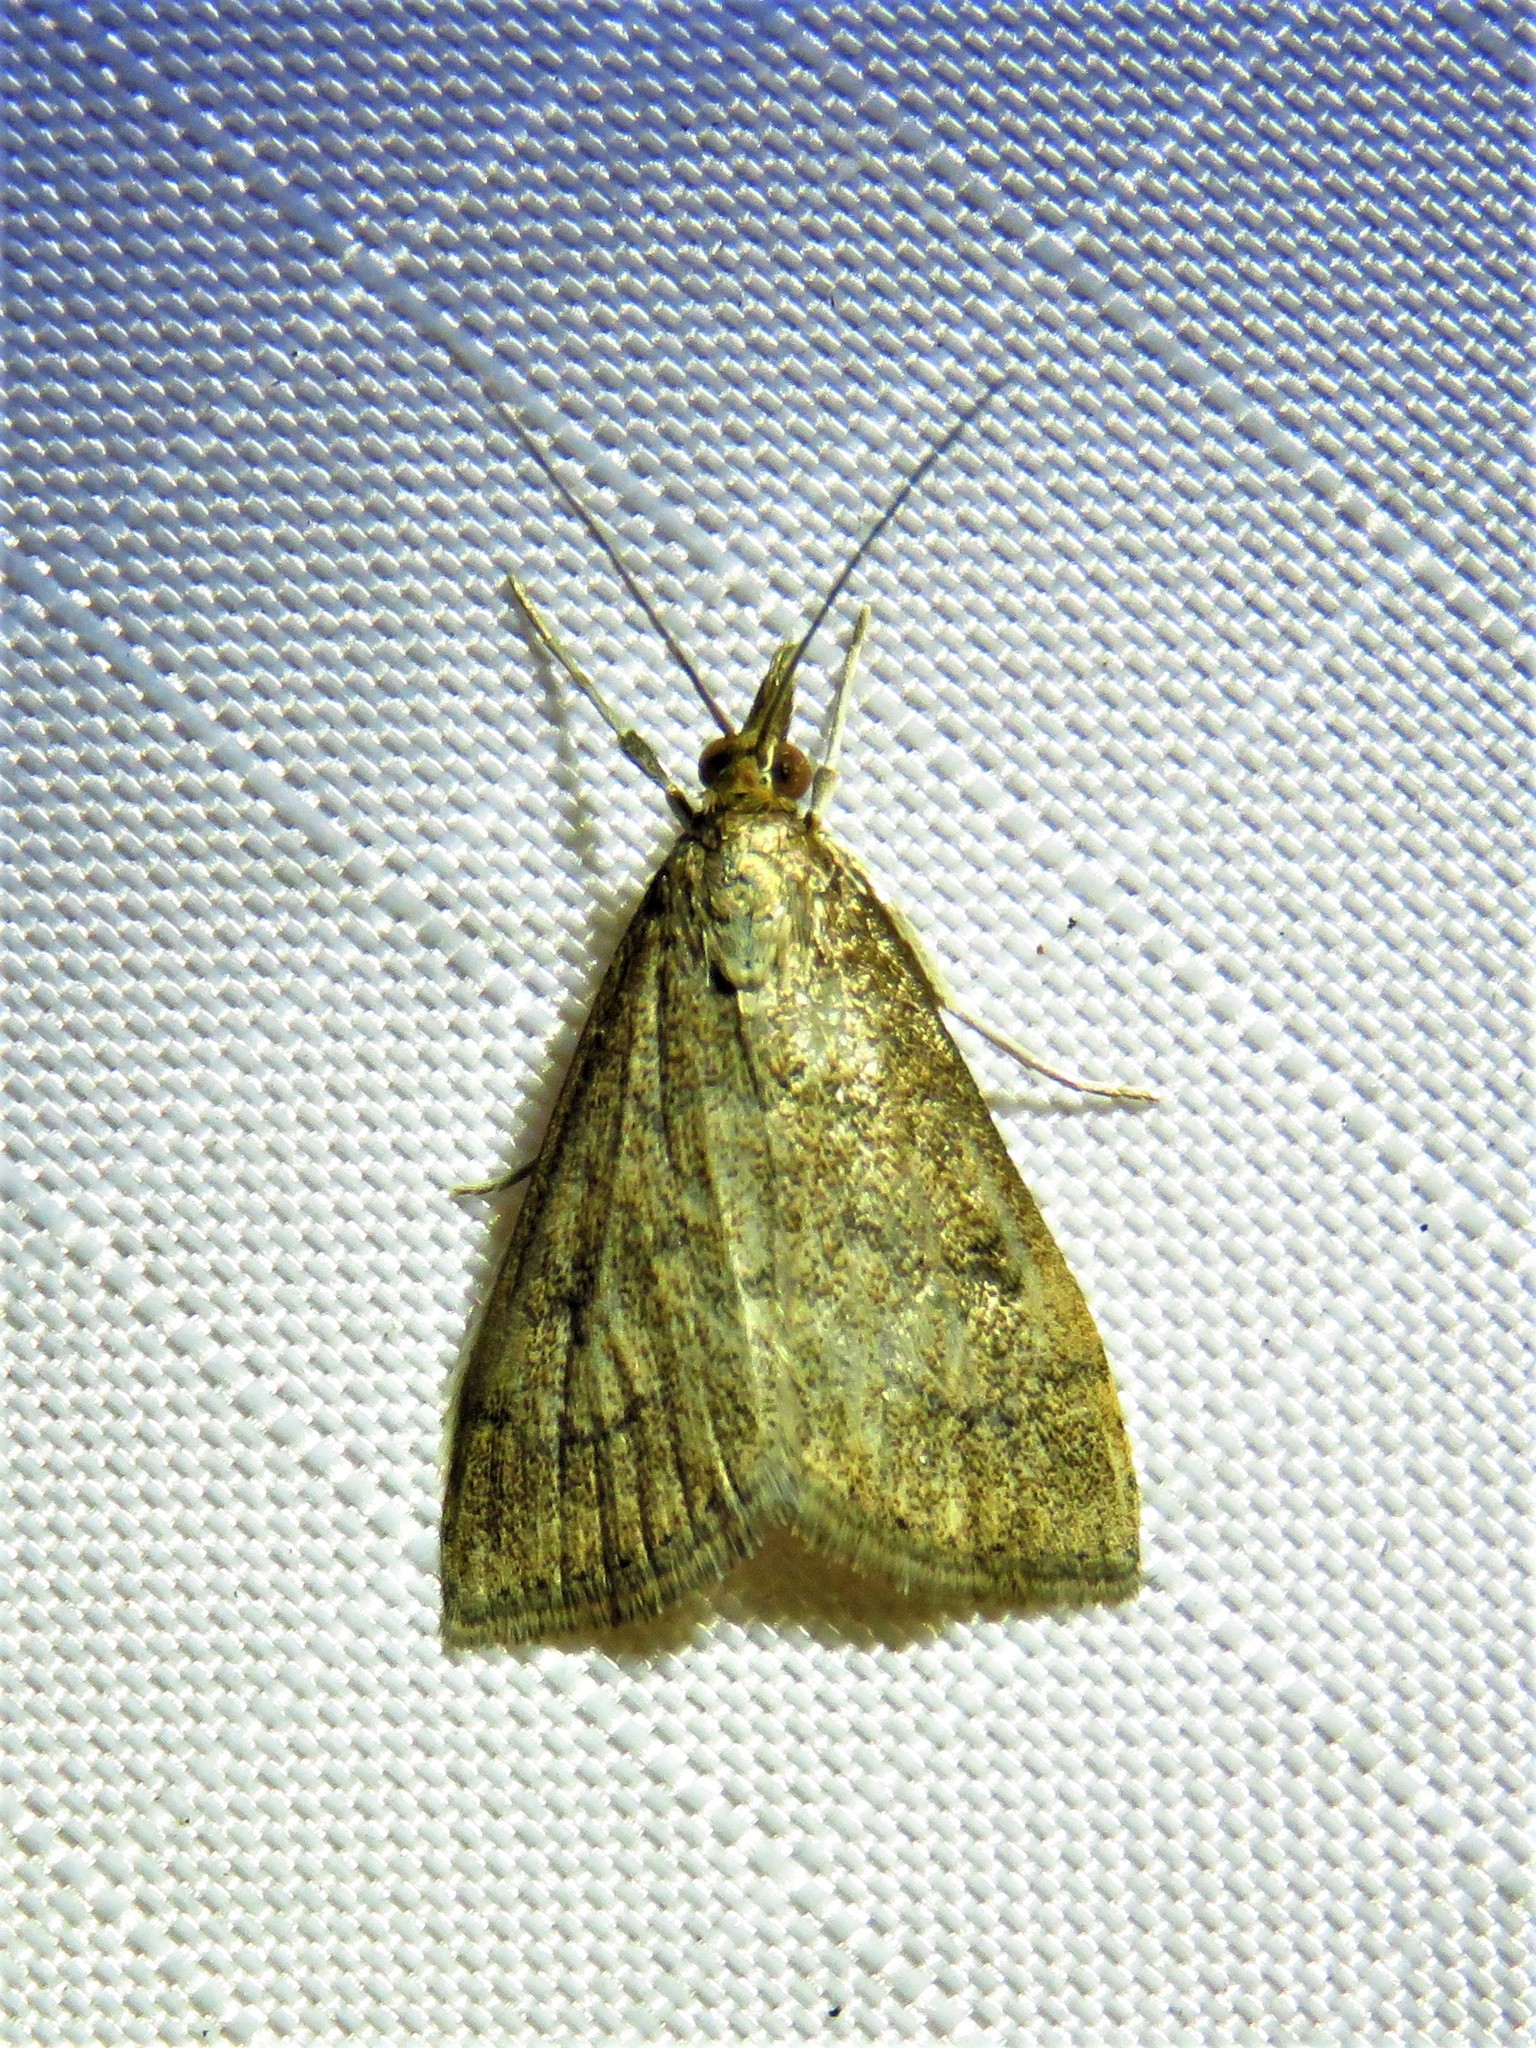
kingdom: Animalia
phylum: Arthropoda
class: Insecta
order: Lepidoptera
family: Crambidae
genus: Udea
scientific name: Udea rubigalis
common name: Celery leaftier moth
